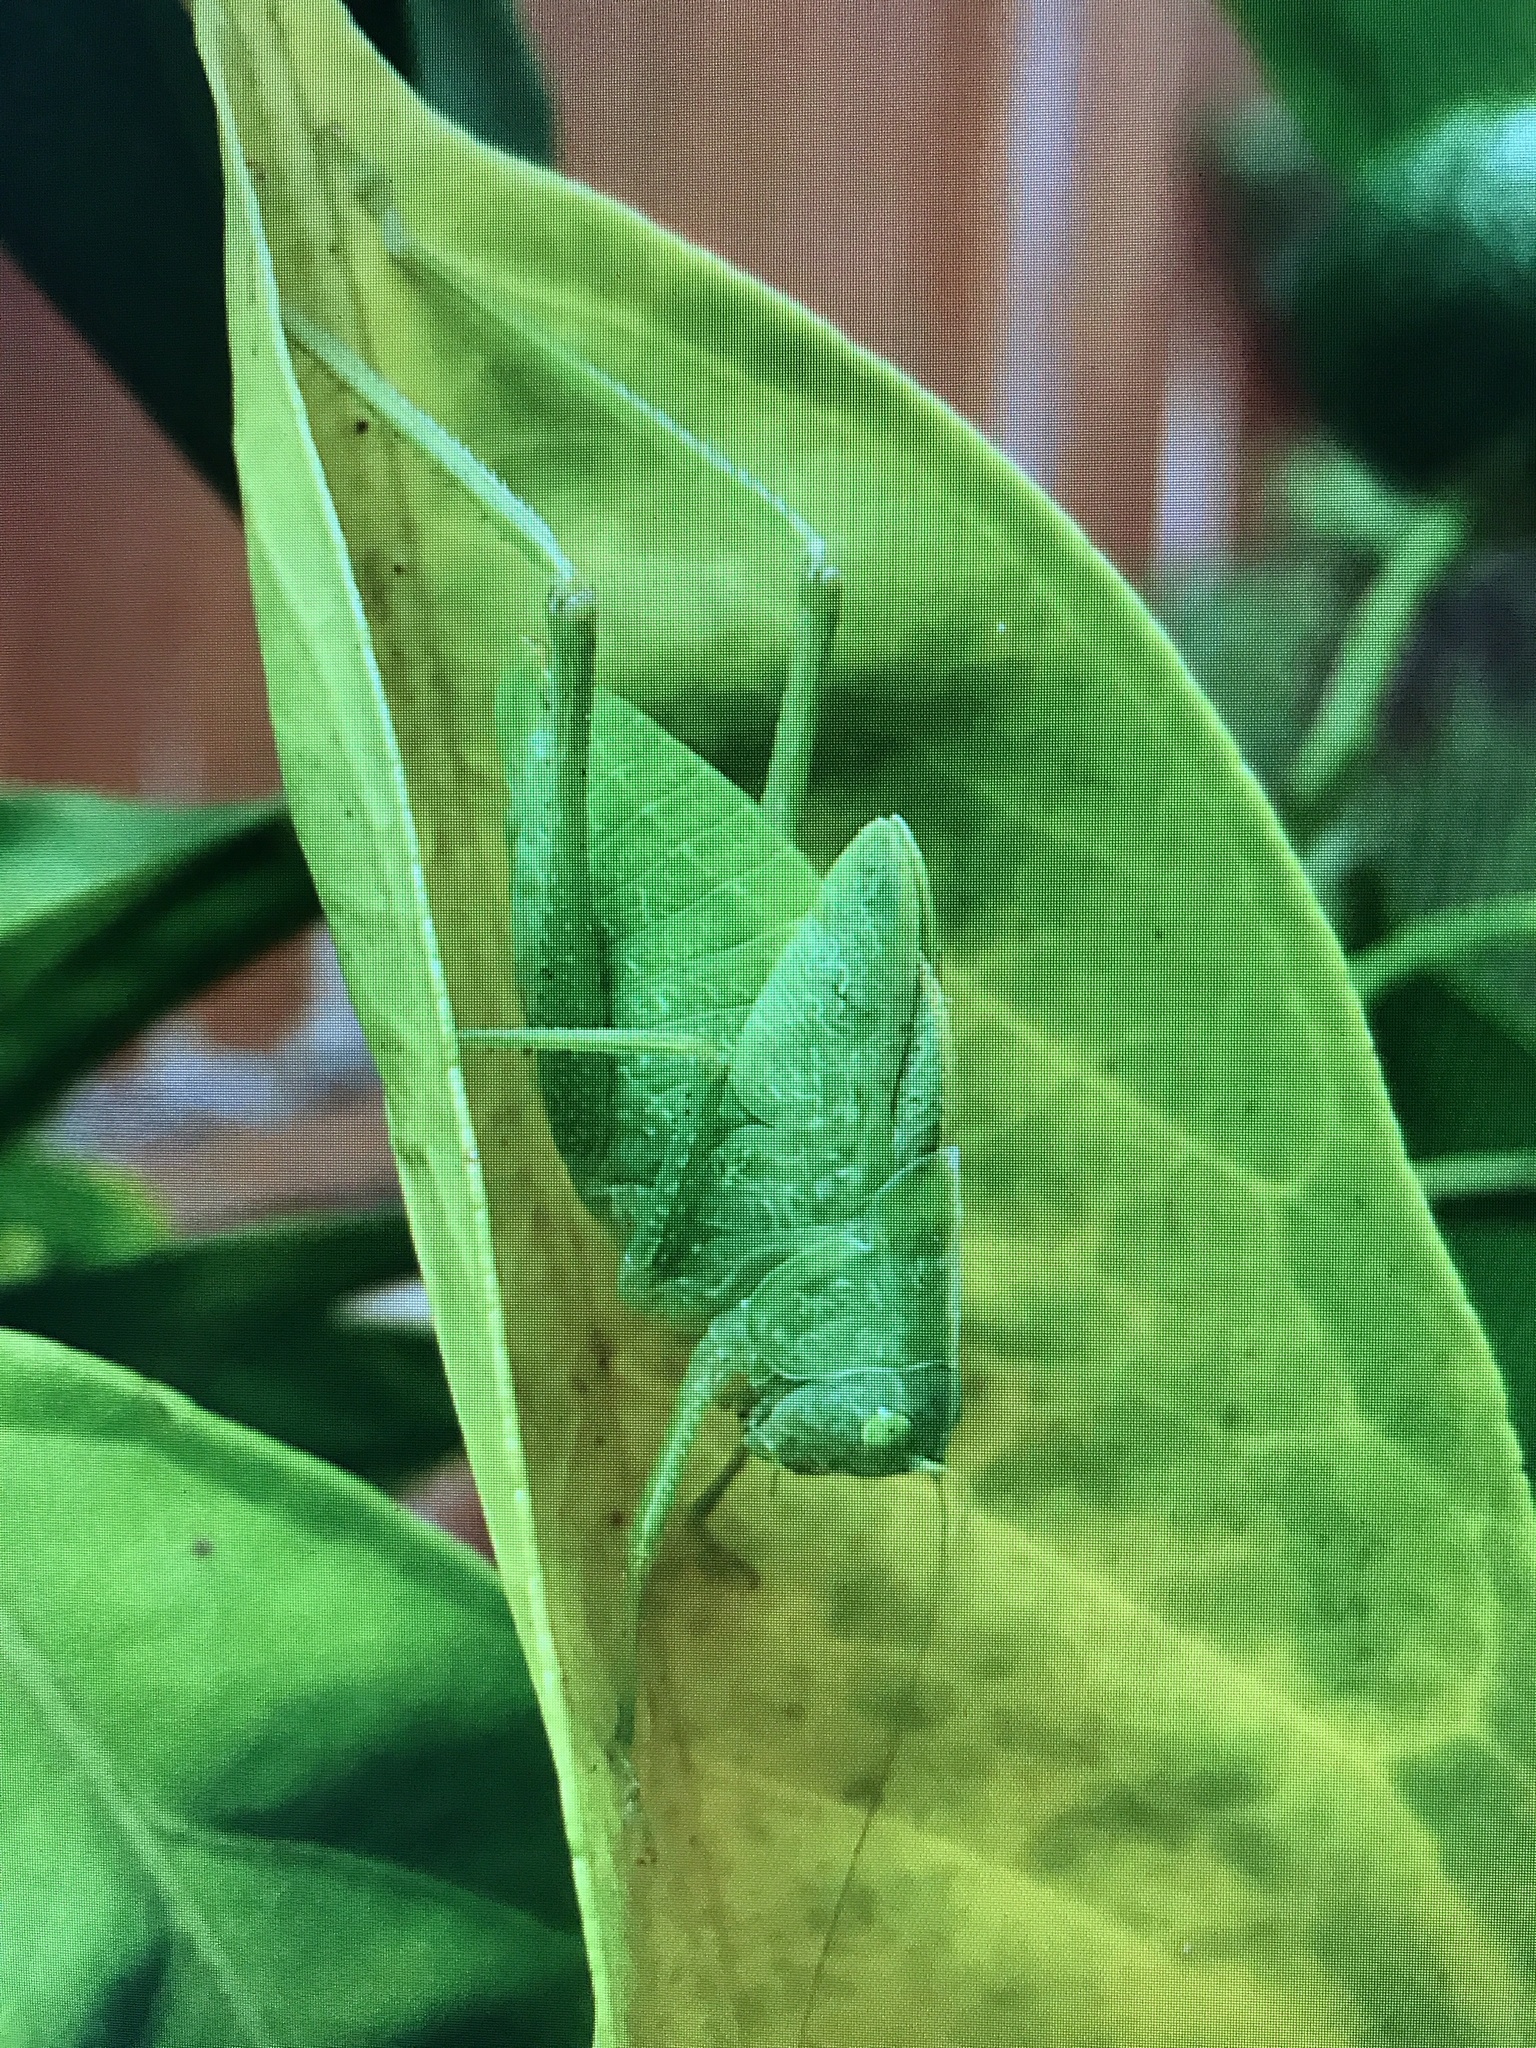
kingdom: Animalia
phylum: Arthropoda
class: Insecta
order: Orthoptera
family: Tettigoniidae
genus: Microcentrum
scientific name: Microcentrum rhombifolium
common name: Broad-winged katydid
